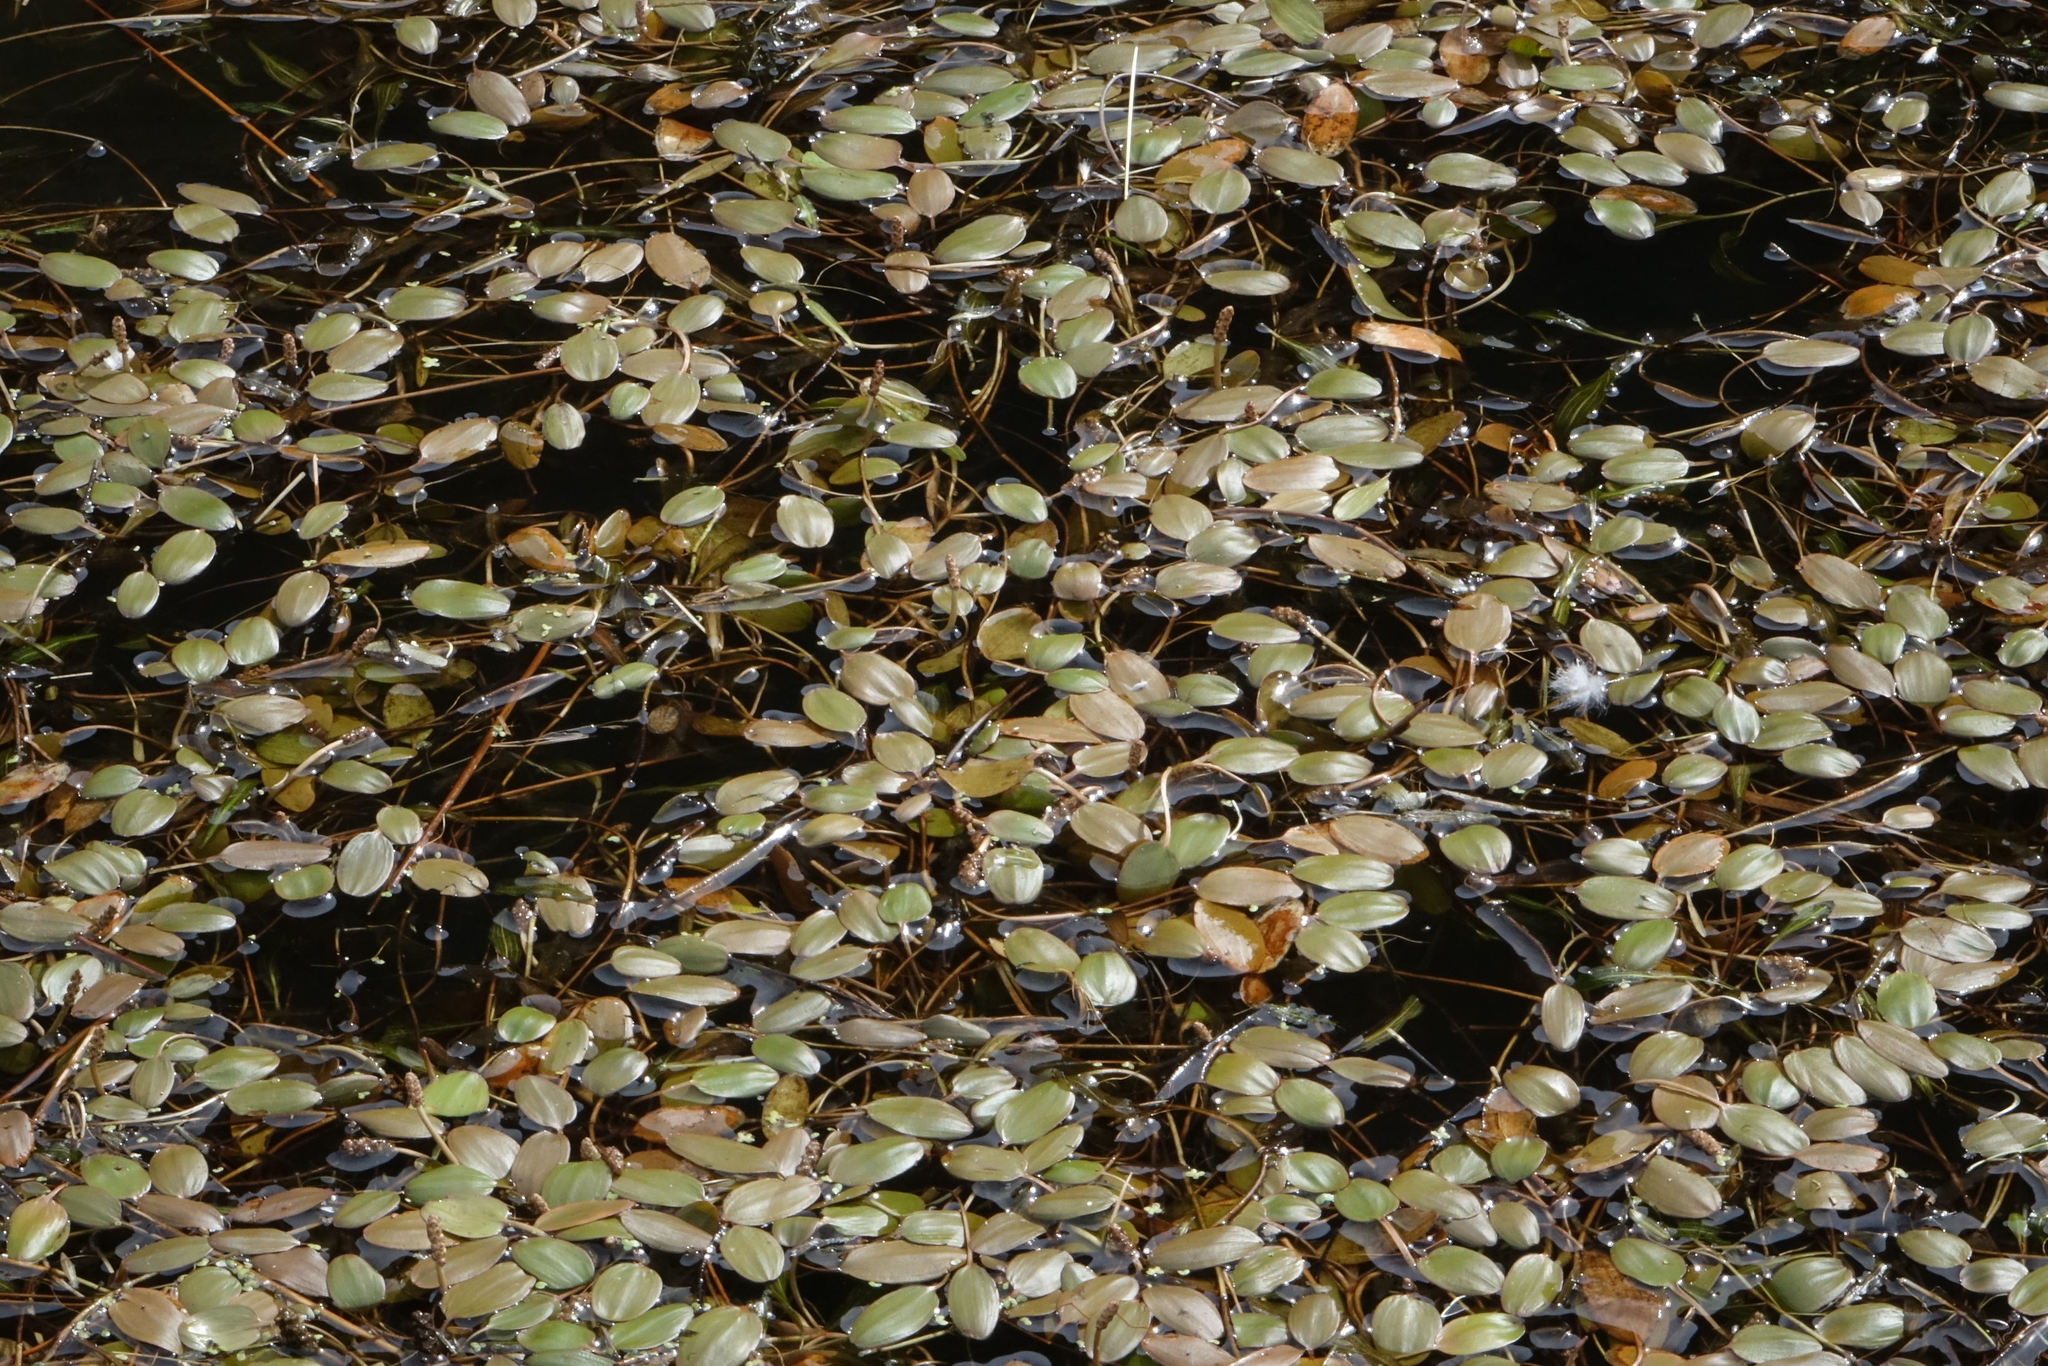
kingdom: Plantae
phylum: Tracheophyta
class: Liliopsida
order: Alismatales
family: Potamogetonaceae
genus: Potamogeton
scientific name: Potamogeton cheesemanii
